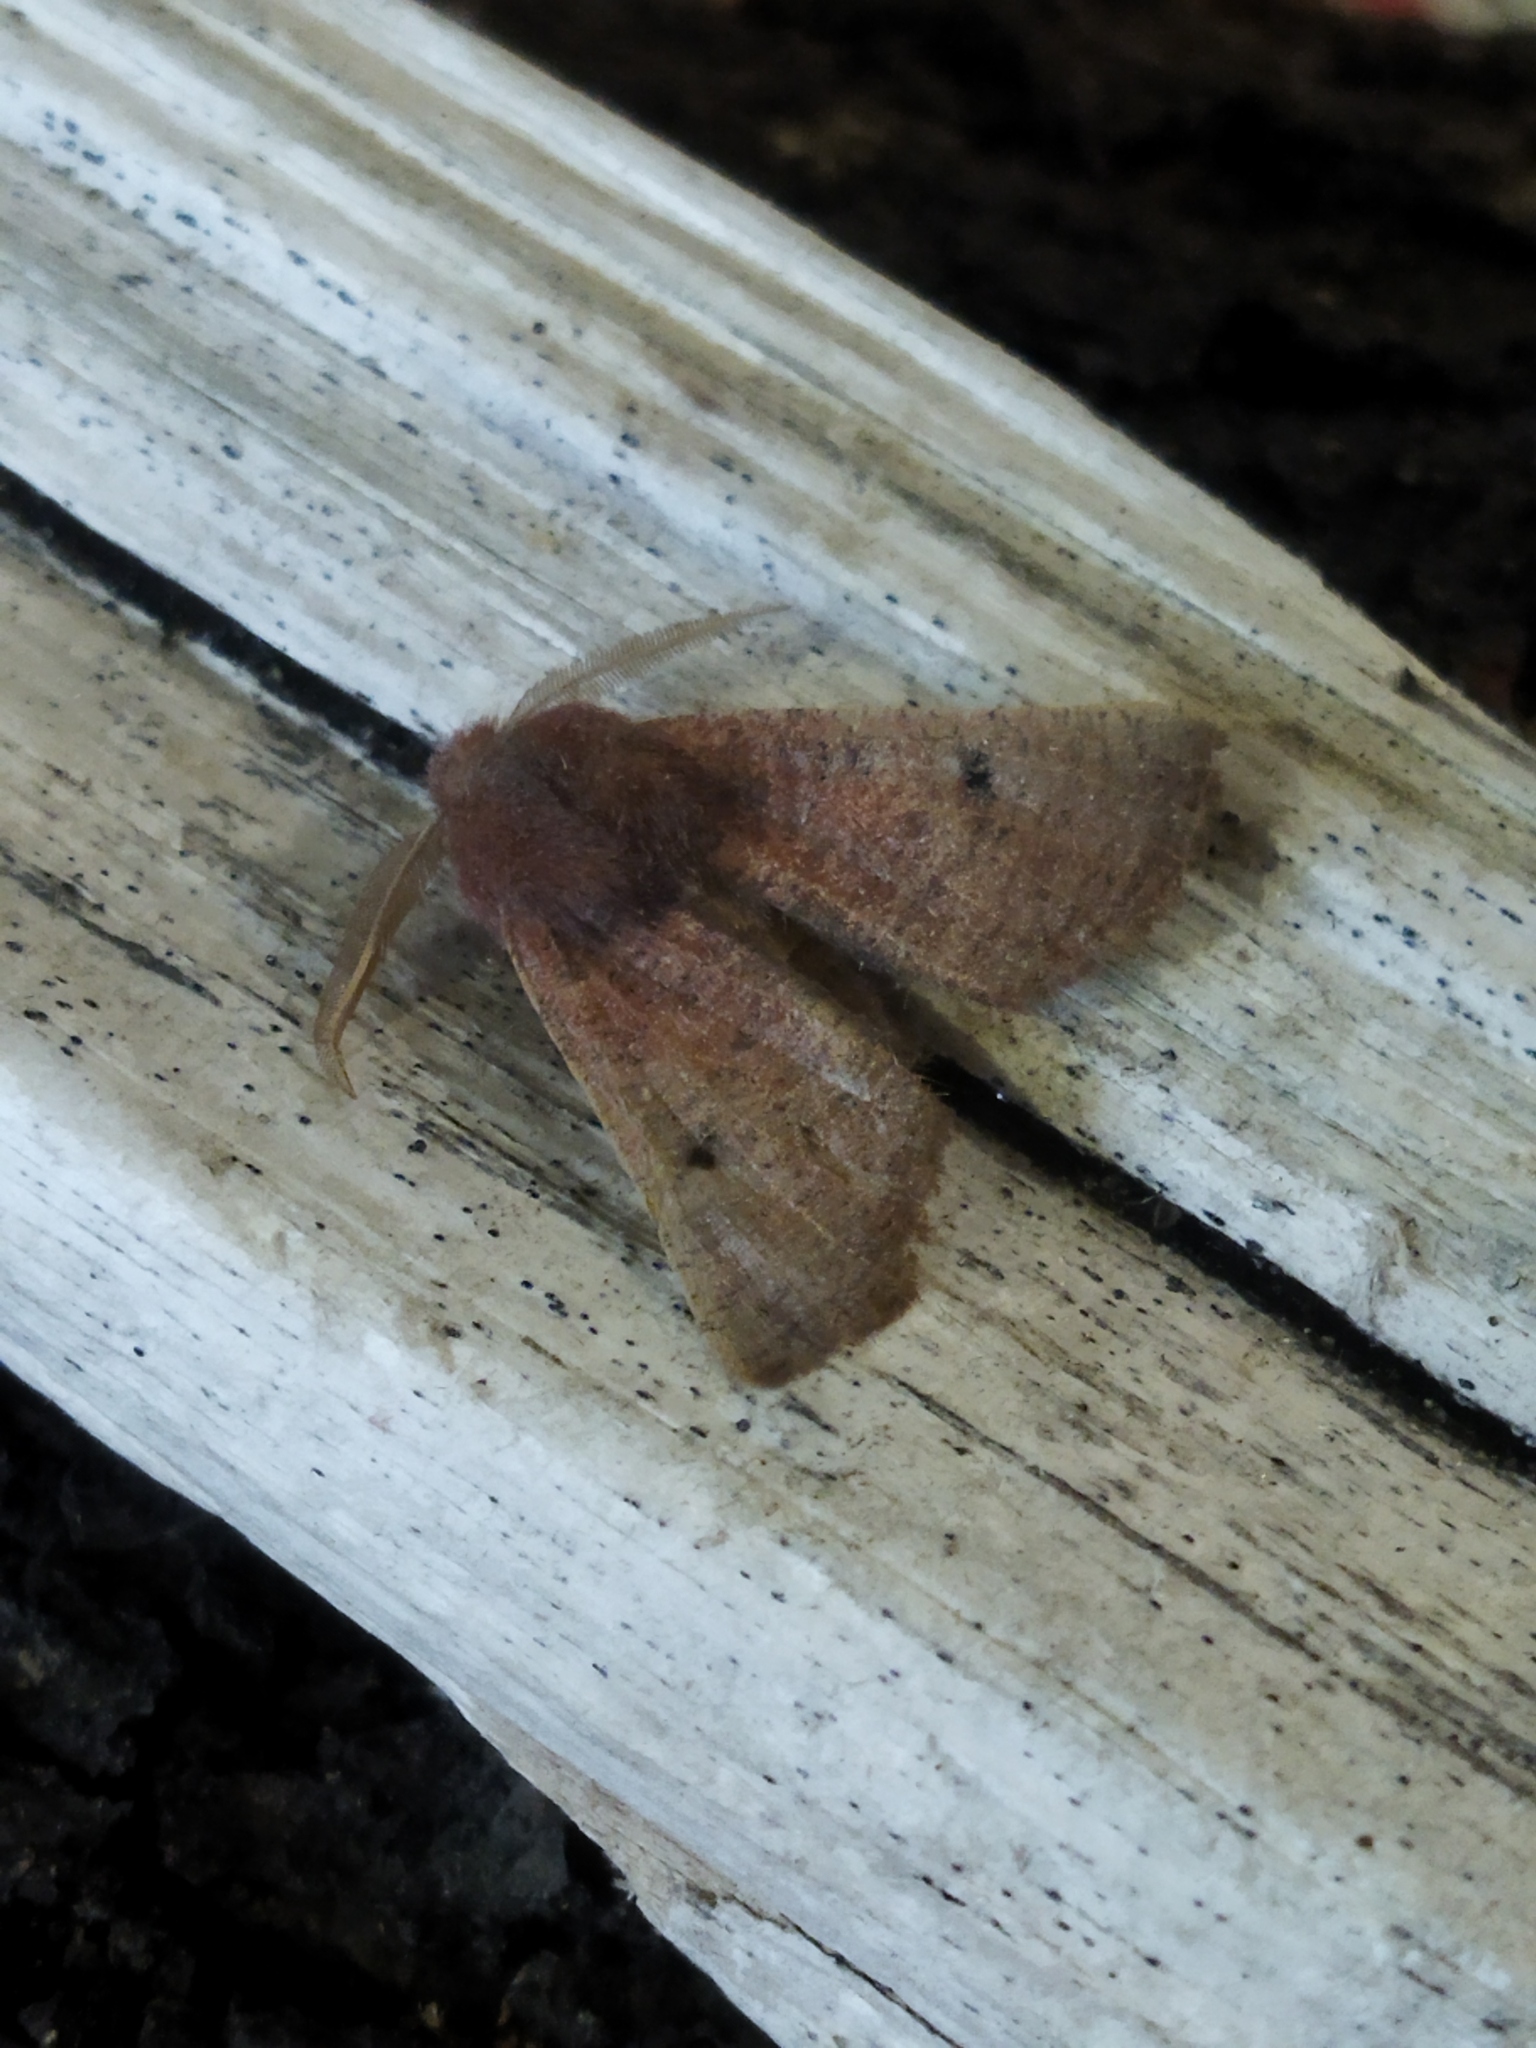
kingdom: Animalia
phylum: Arthropoda
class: Insecta
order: Lepidoptera
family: Geometridae
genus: Dasycorsa
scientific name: Dasycorsa modesta
